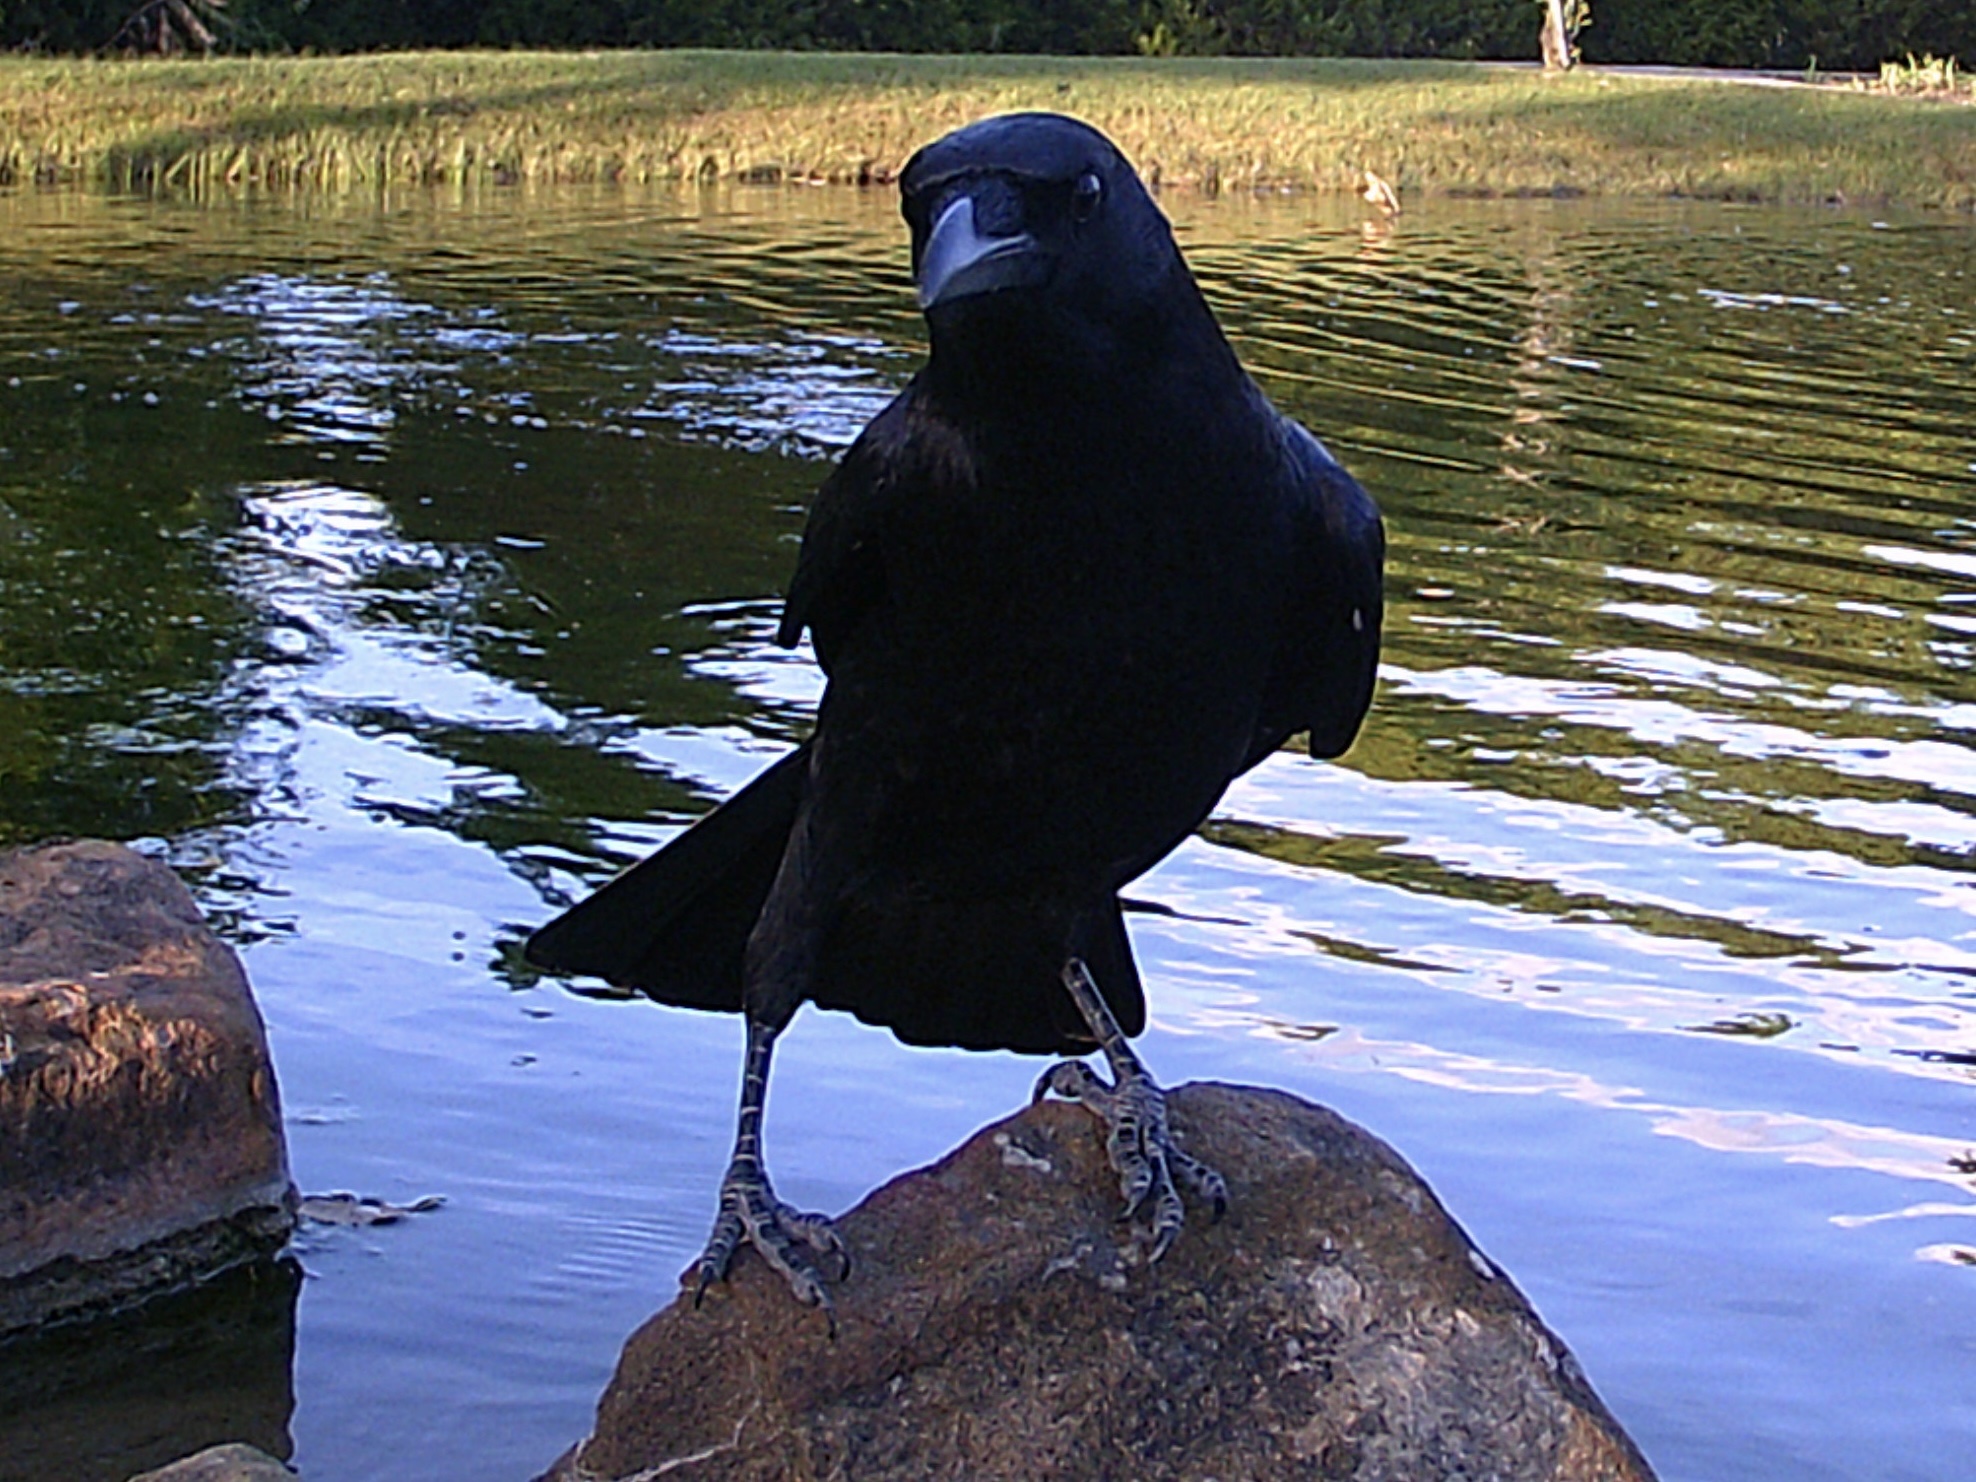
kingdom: Animalia
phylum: Chordata
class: Aves
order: Passeriformes
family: Corvidae
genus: Corvus
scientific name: Corvus brachyrhynchos
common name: American crow
